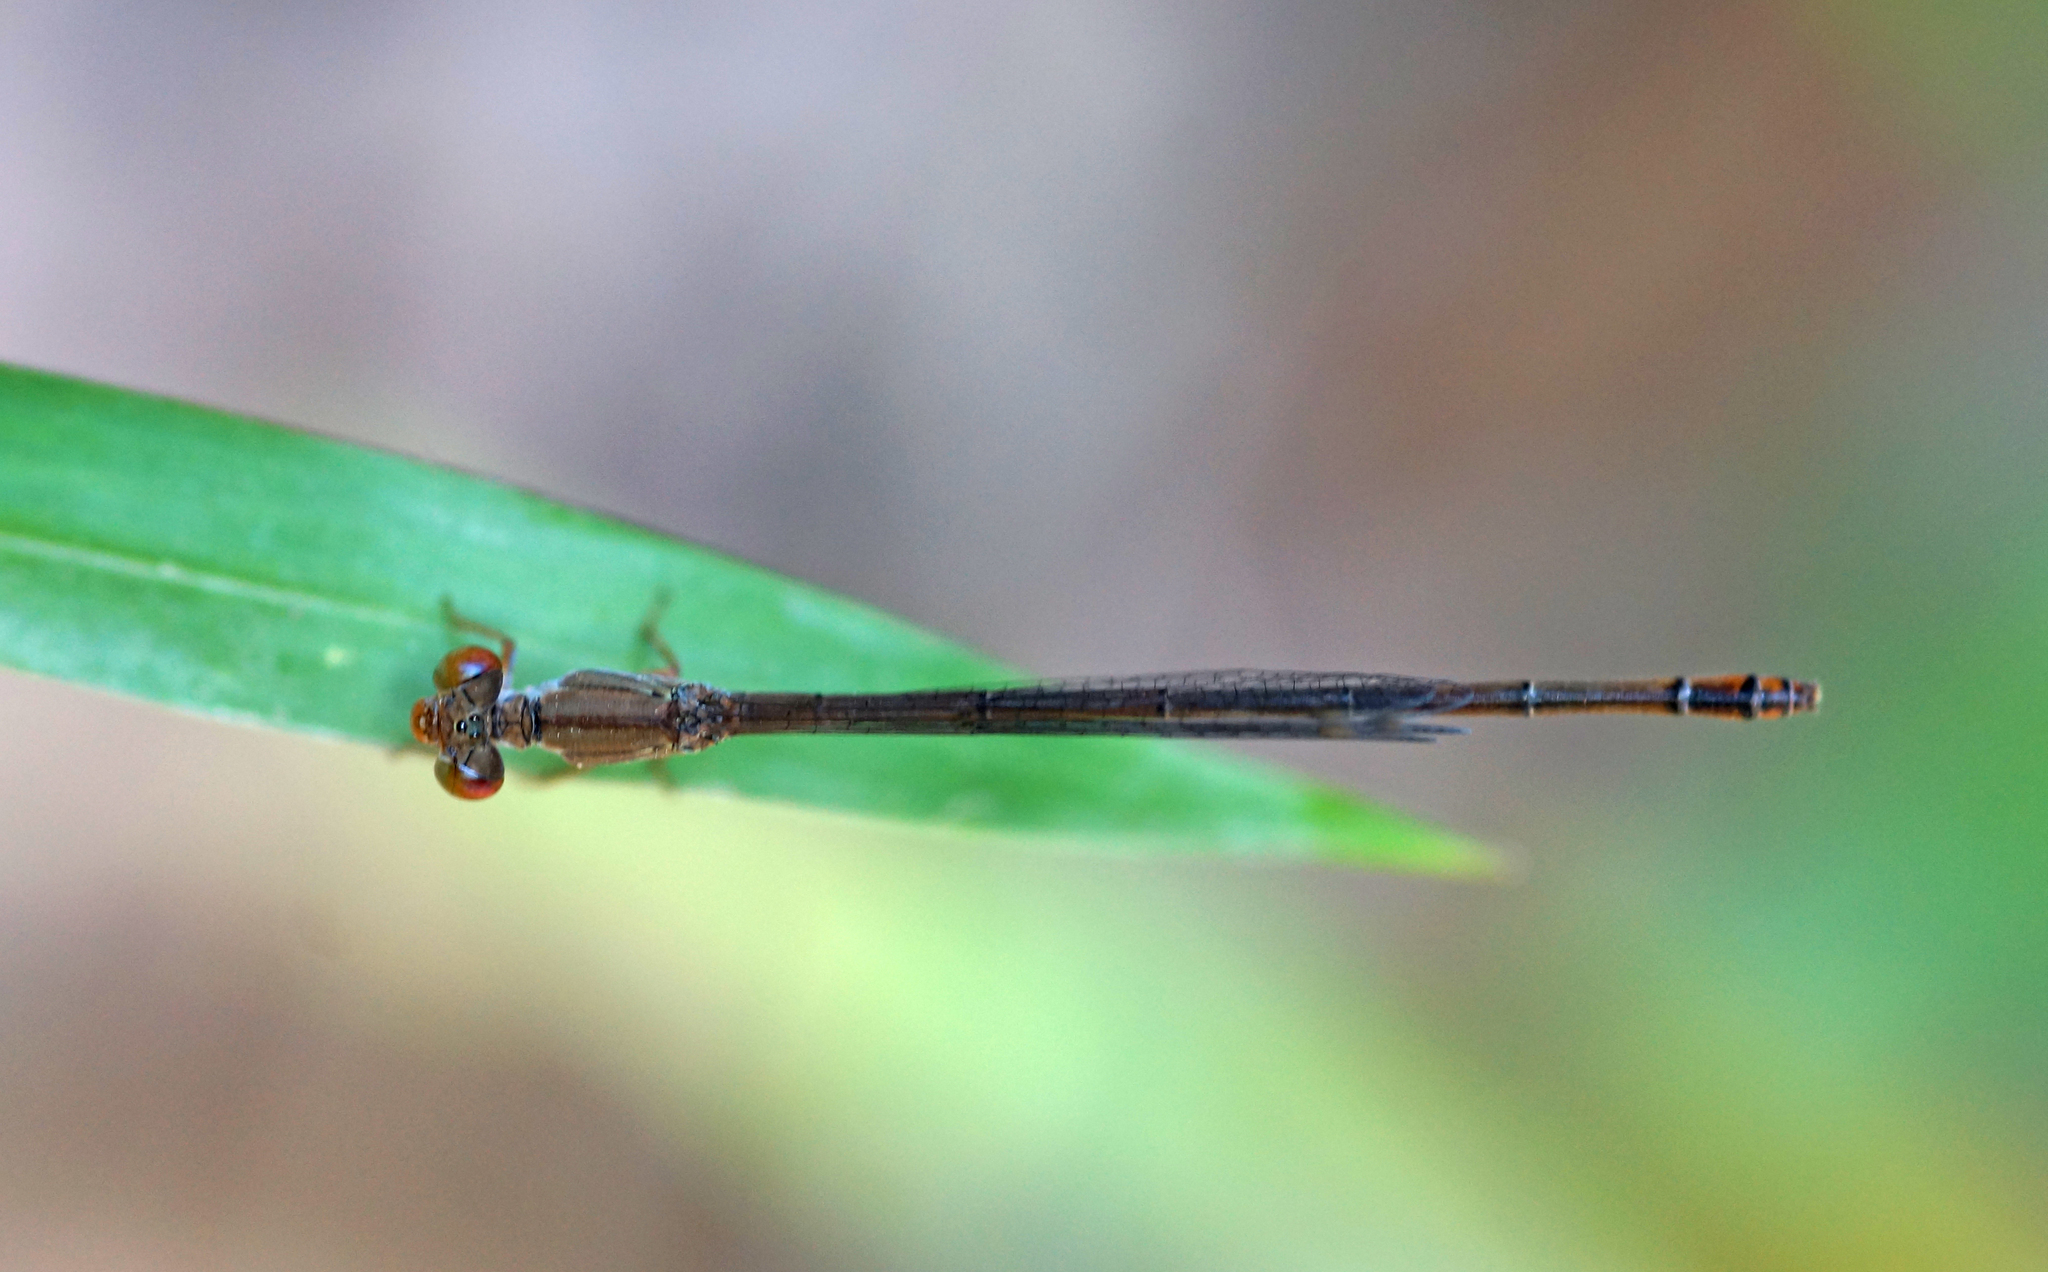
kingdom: Animalia
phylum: Arthropoda
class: Insecta
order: Odonata
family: Coenagrionidae
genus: Ceriagrion
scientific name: Ceriagrion praetermissum
